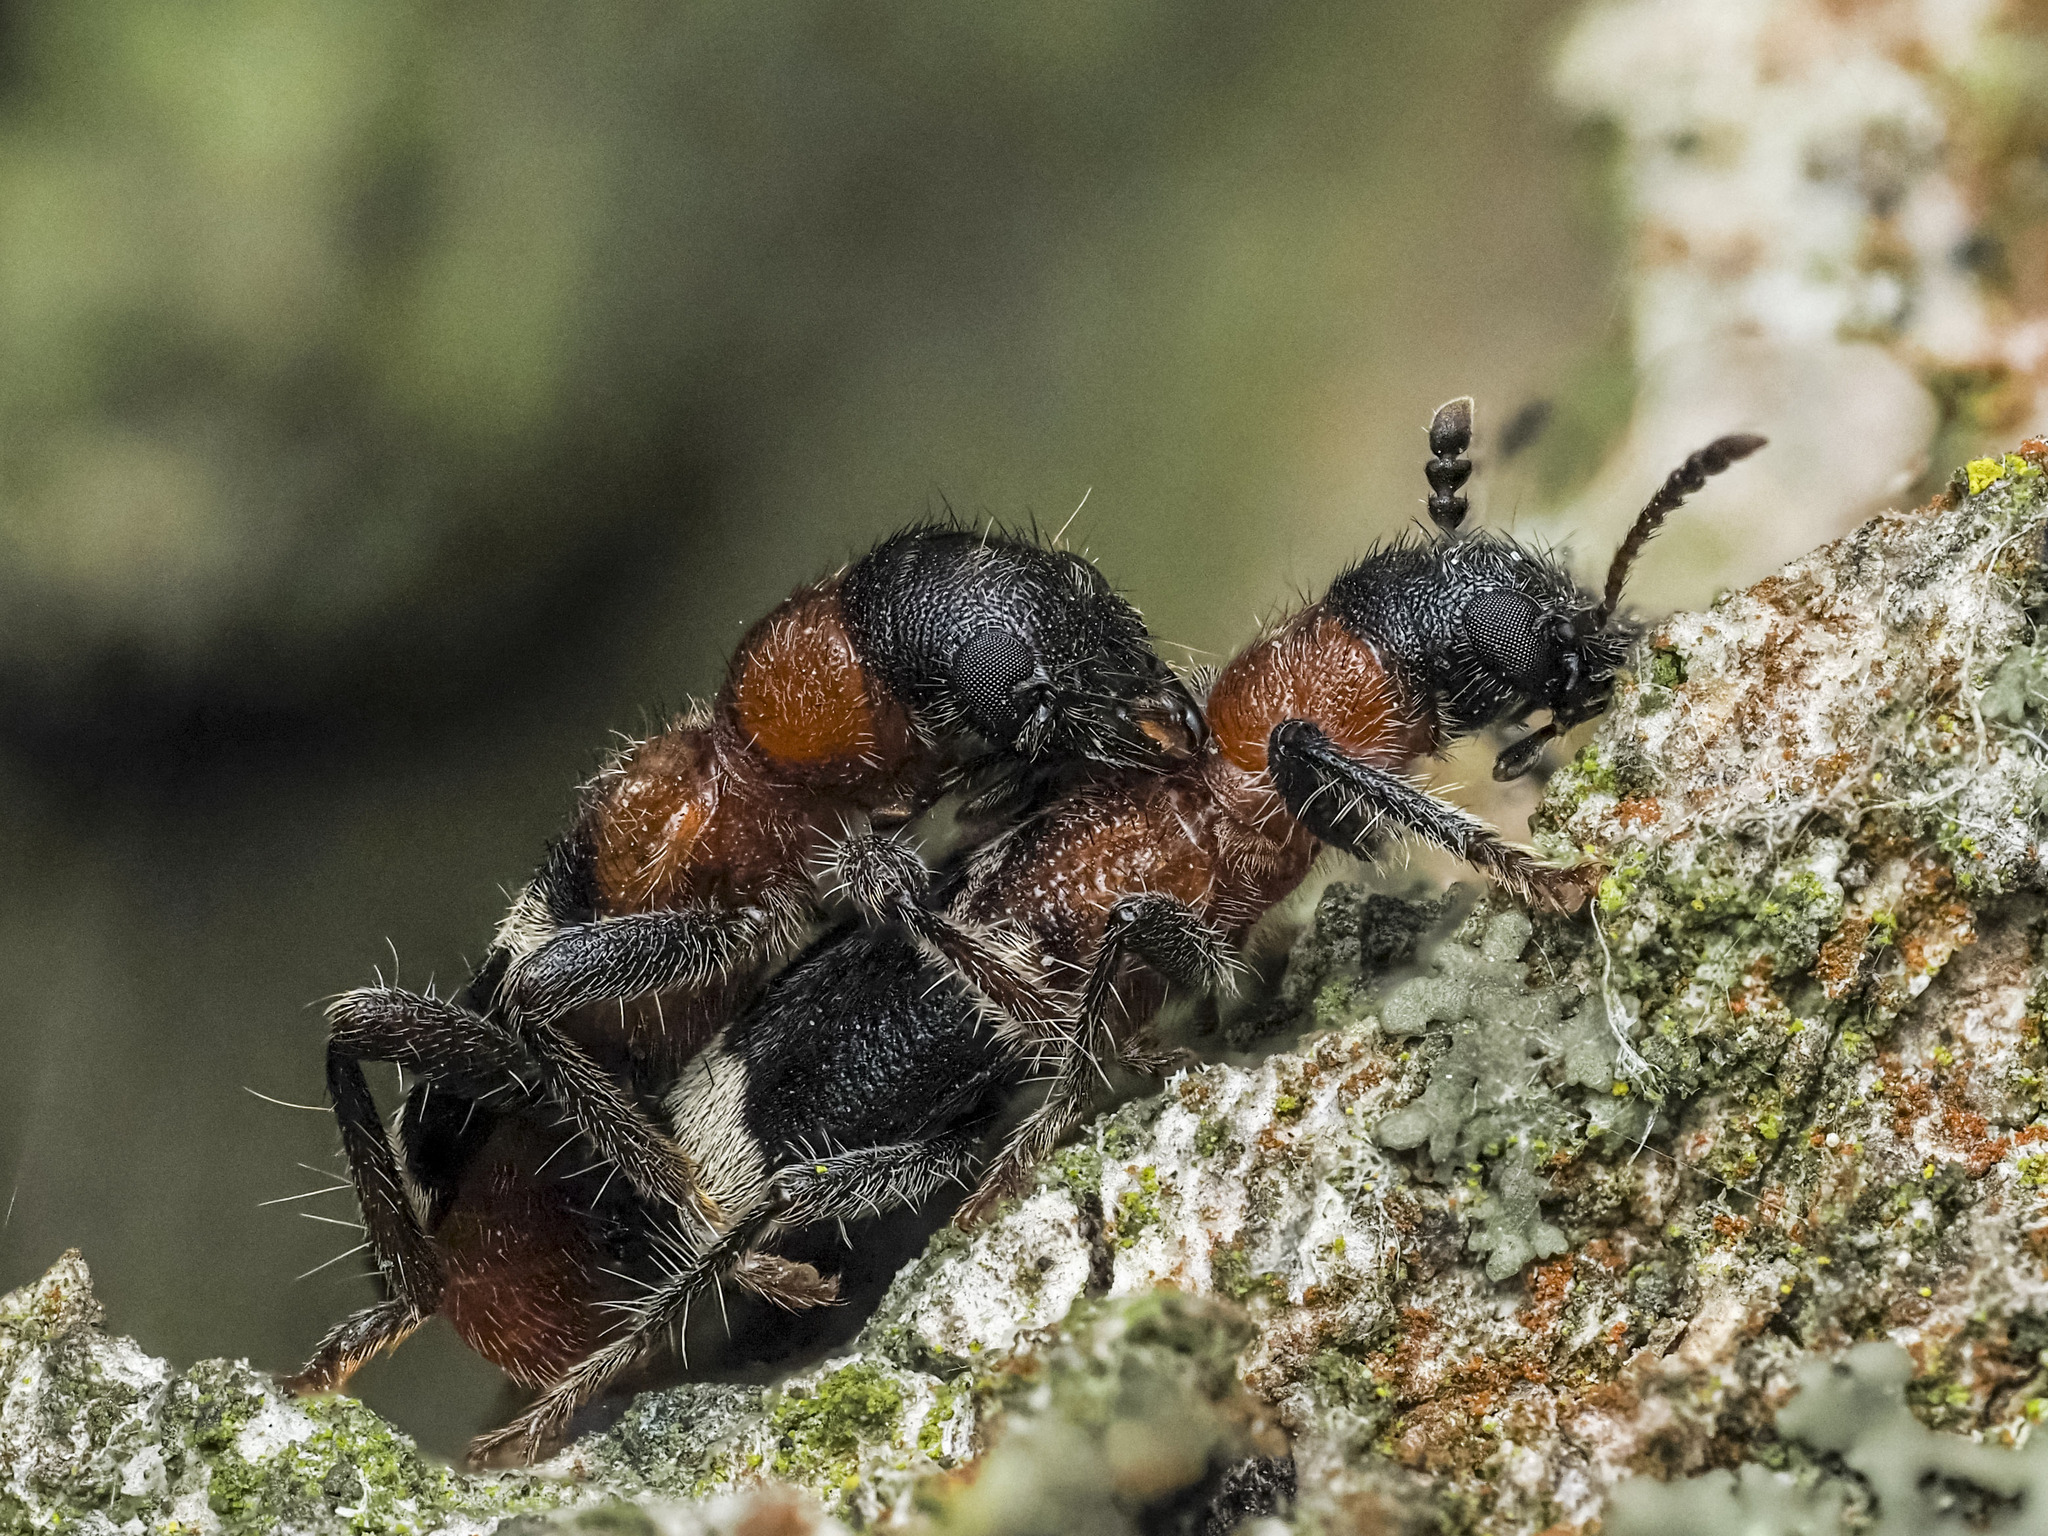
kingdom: Animalia
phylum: Arthropoda
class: Insecta
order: Coleoptera
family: Cleridae
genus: Thanasimus
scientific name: Thanasimus formicarius
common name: Ant beetle
